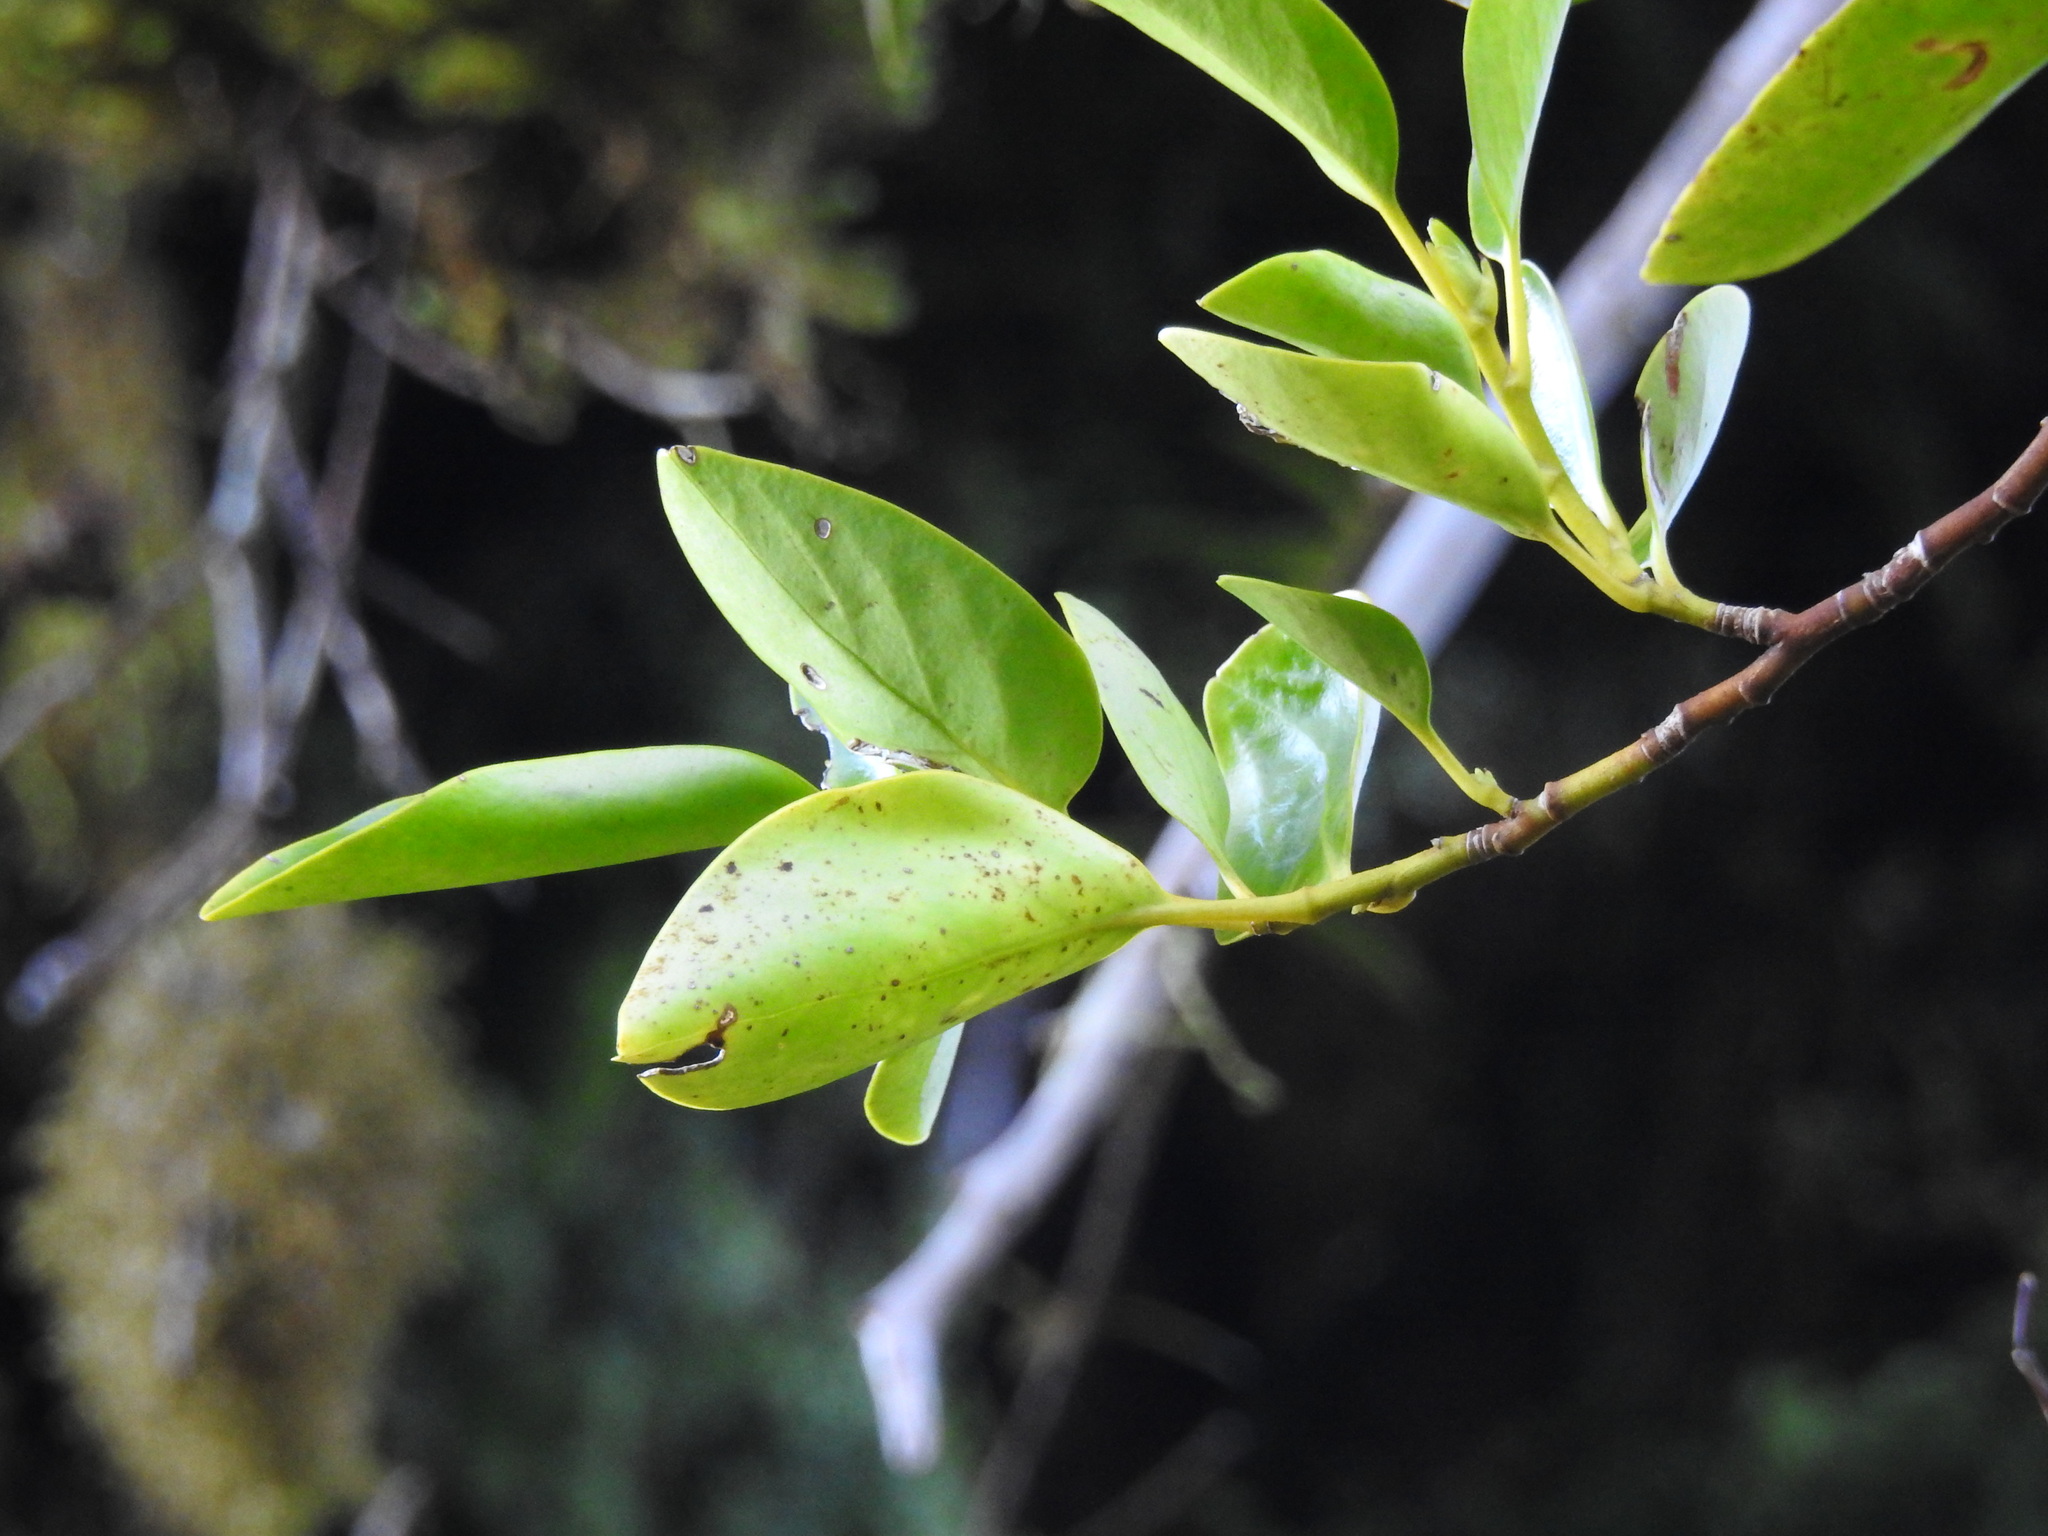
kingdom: Plantae
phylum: Tracheophyta
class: Magnoliopsida
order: Apiales
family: Griseliniaceae
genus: Griselinia
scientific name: Griselinia littoralis
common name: New zealand broadleaf
